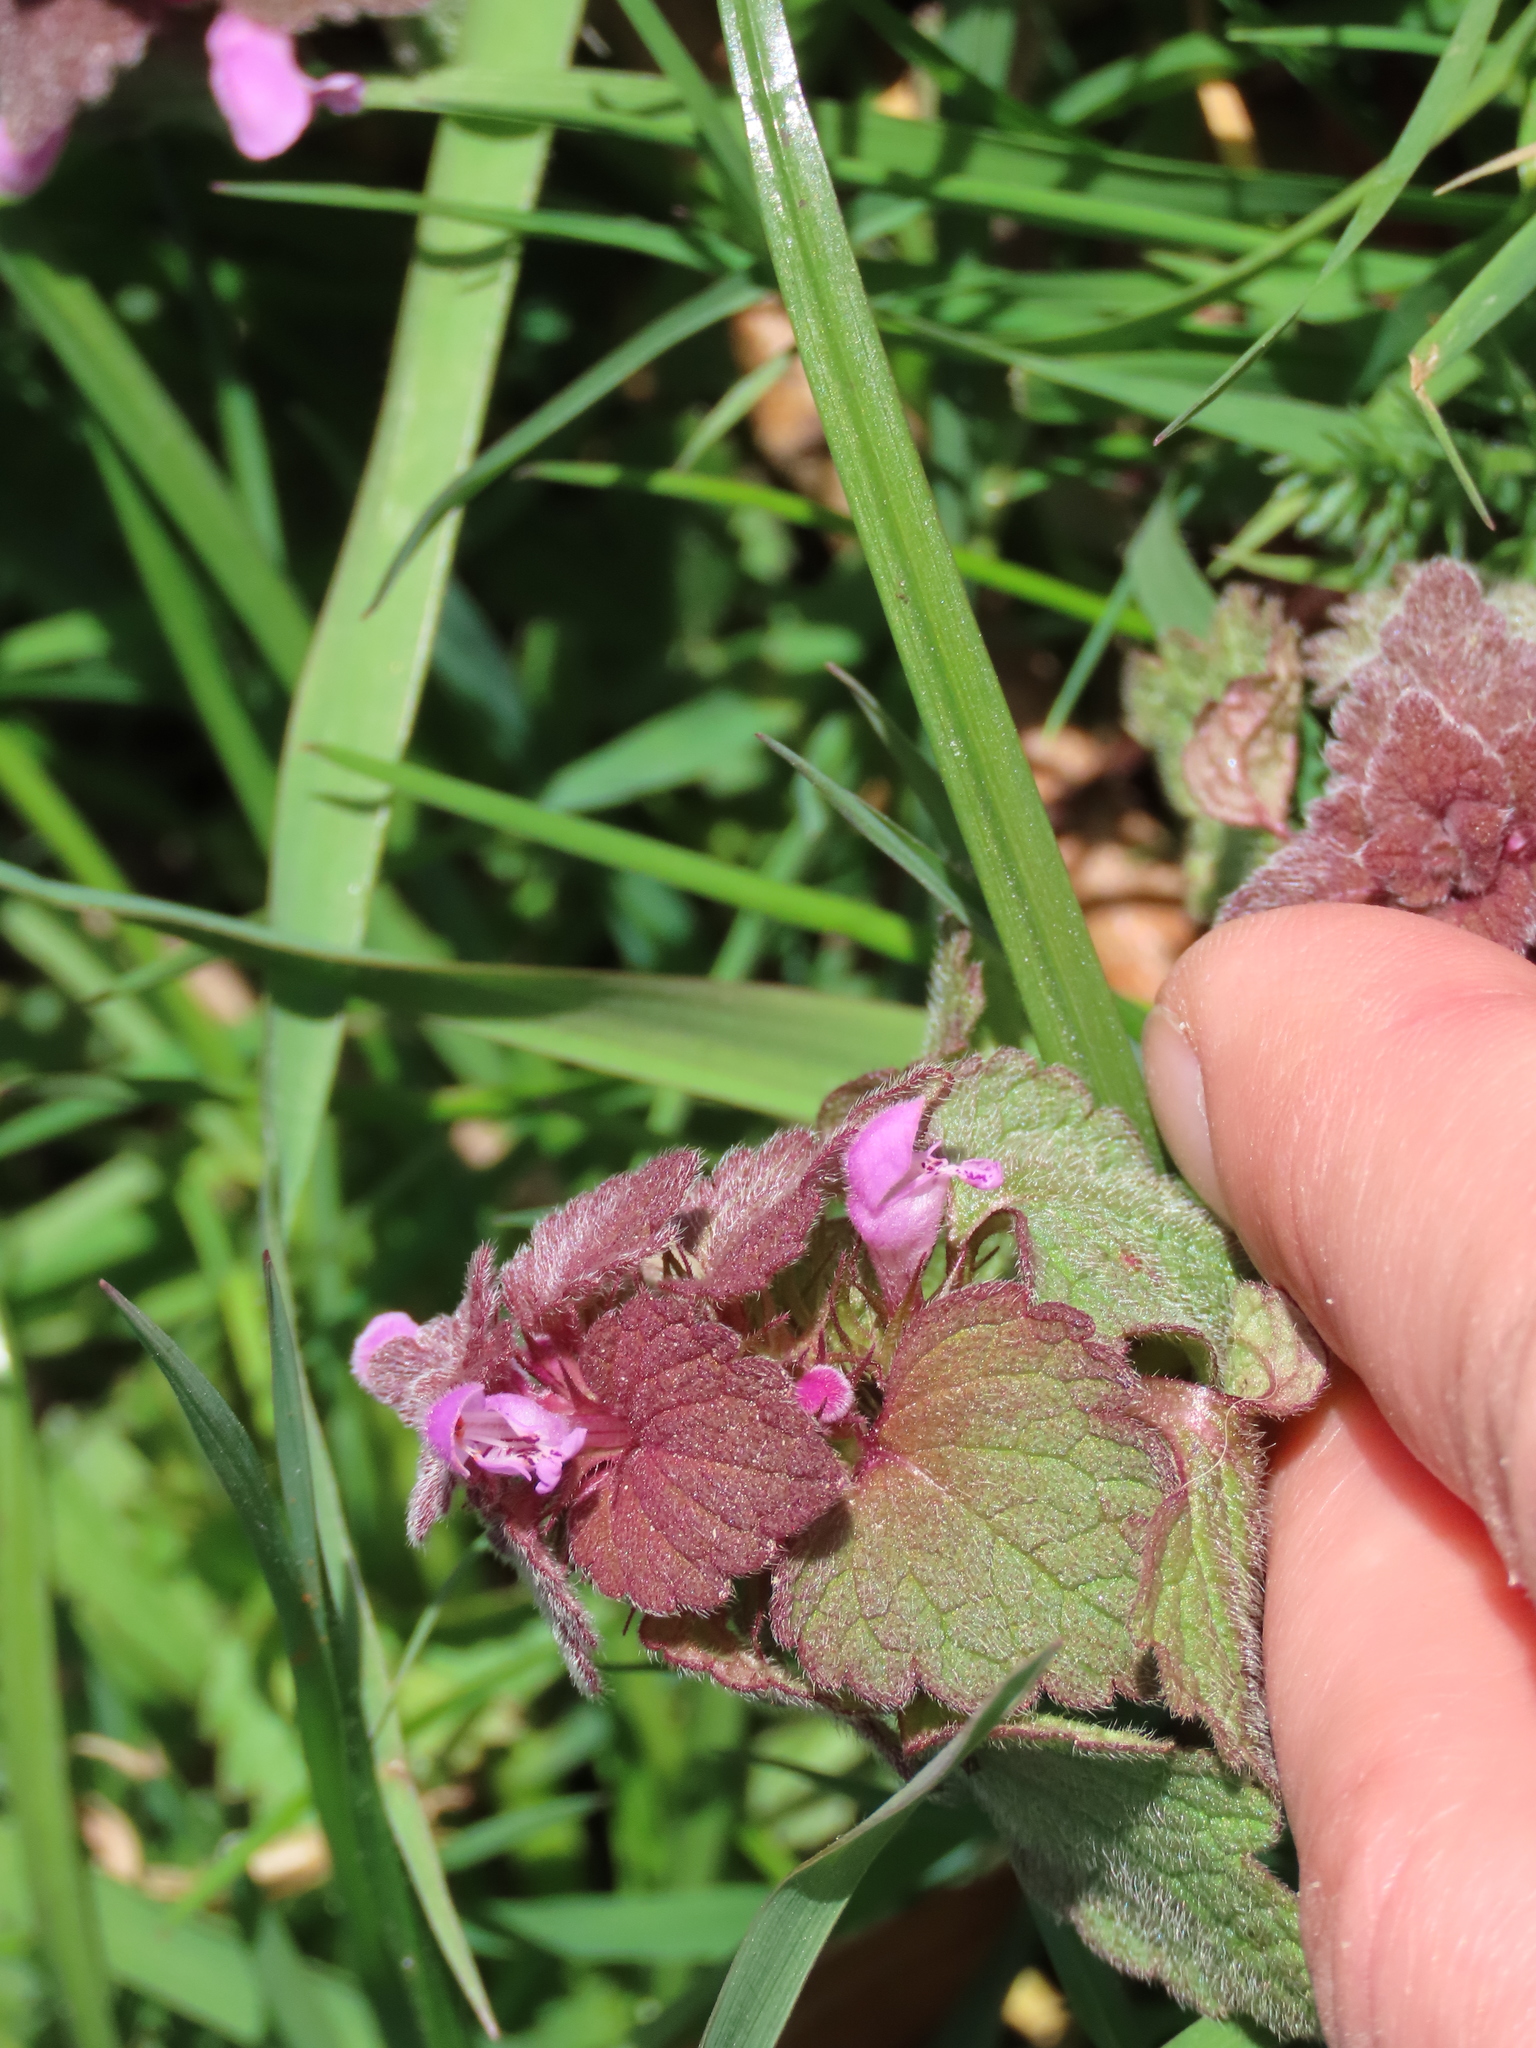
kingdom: Plantae
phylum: Tracheophyta
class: Magnoliopsida
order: Lamiales
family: Lamiaceae
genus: Lamium
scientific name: Lamium purpureum
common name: Red dead-nettle
